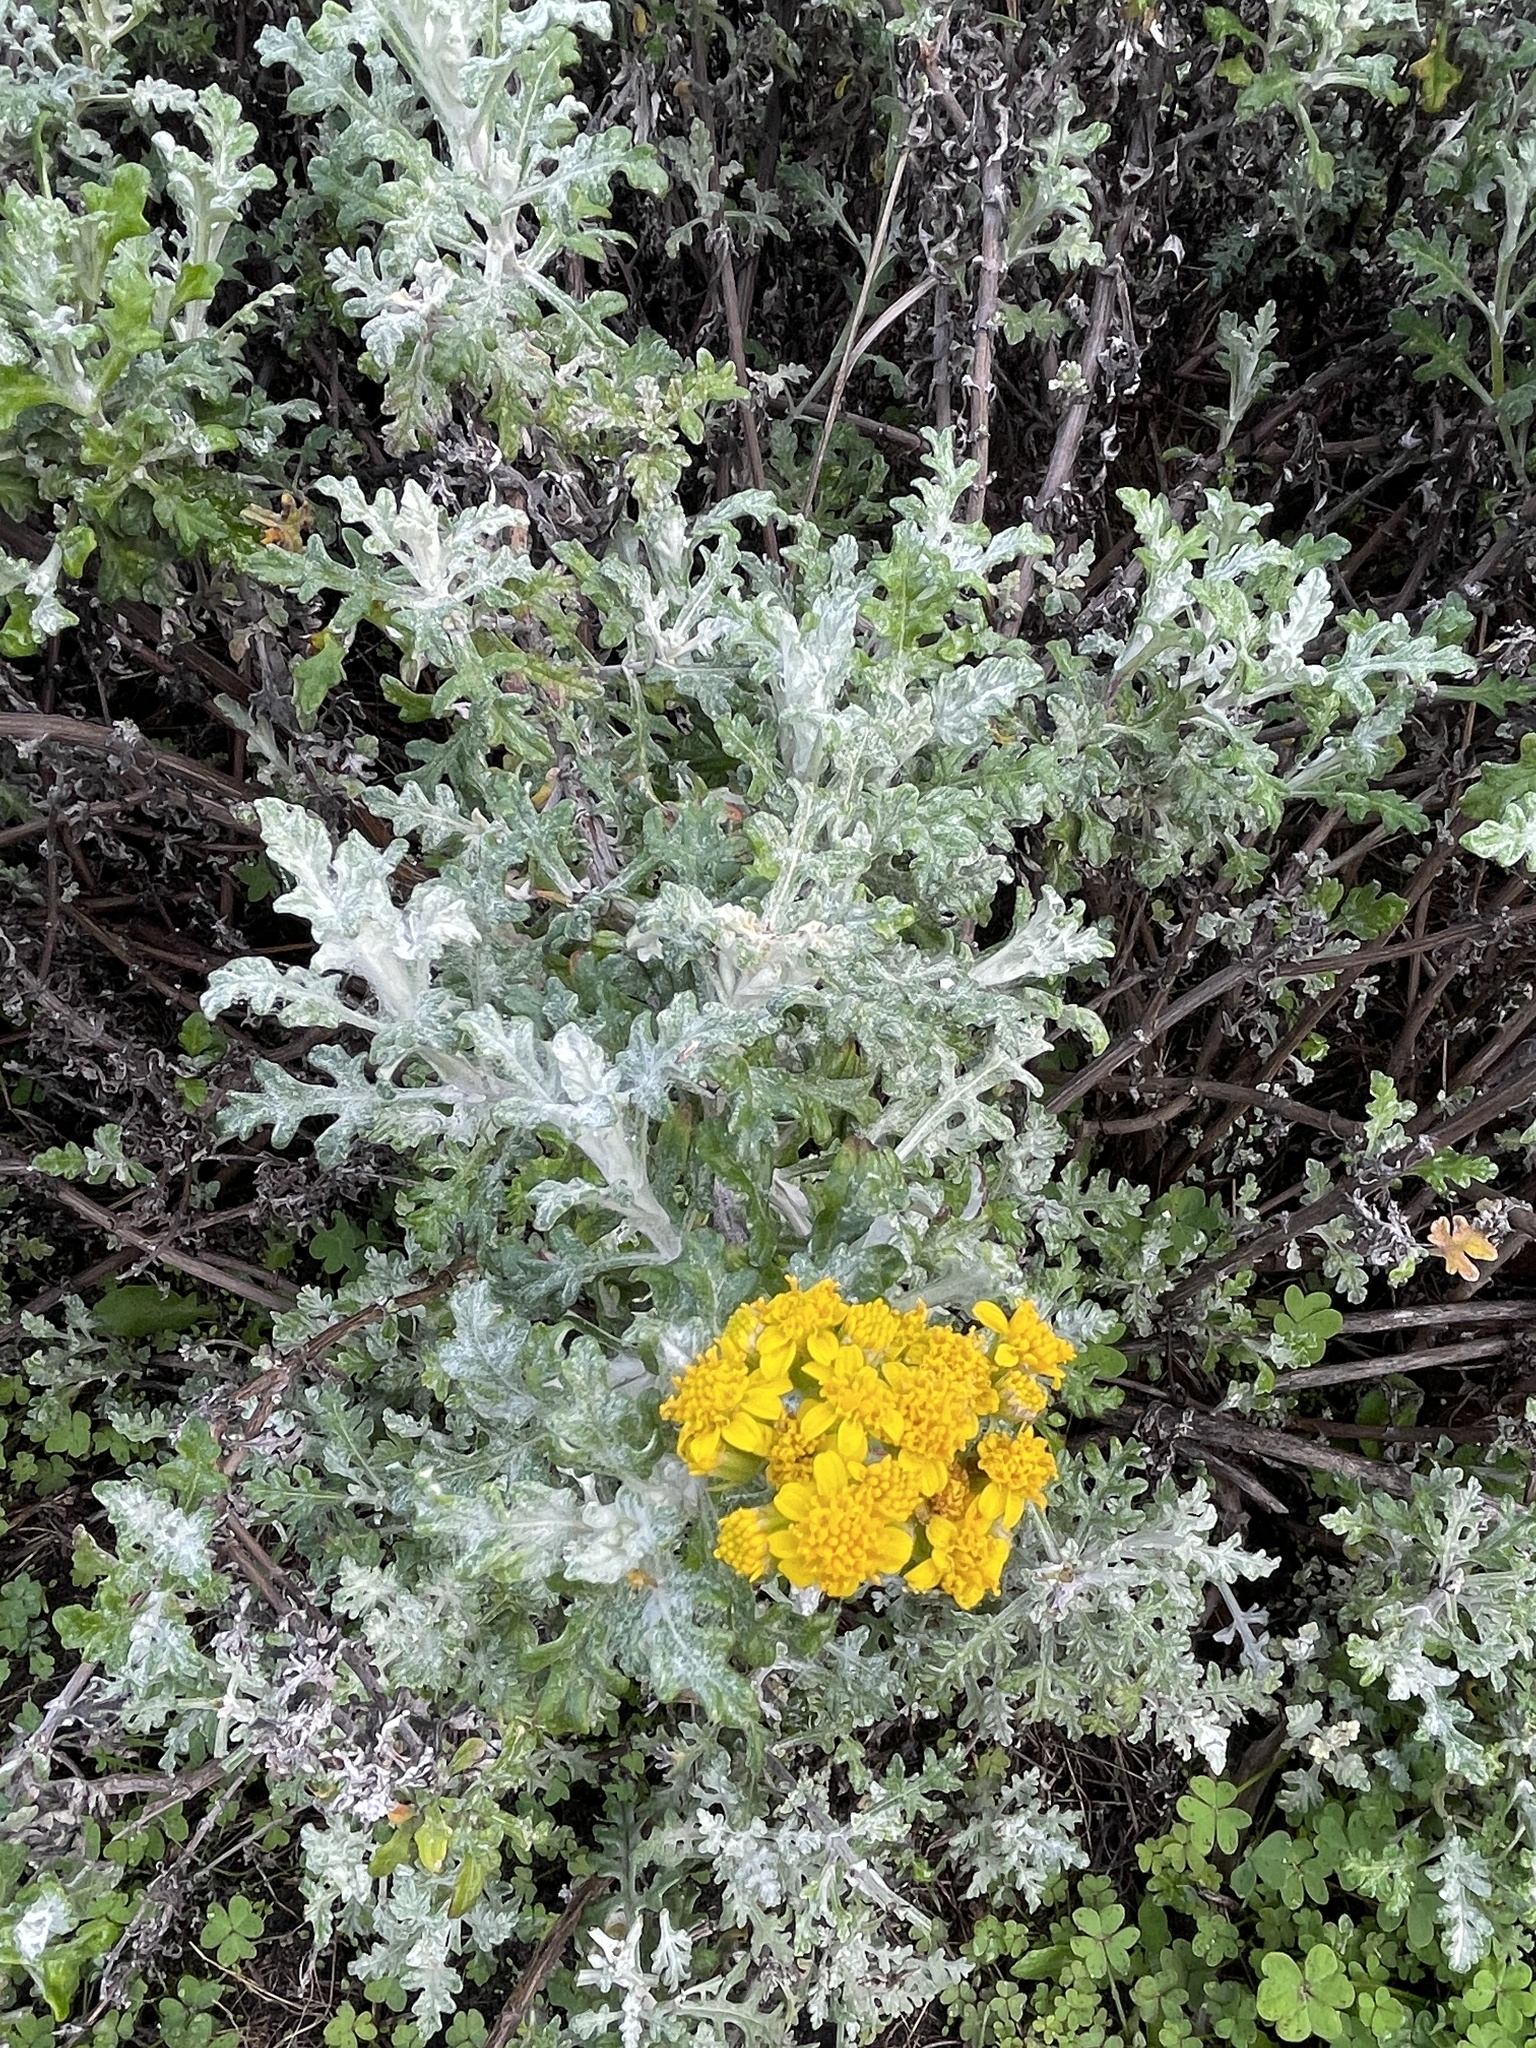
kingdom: Plantae
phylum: Tracheophyta
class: Magnoliopsida
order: Asterales
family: Asteraceae
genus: Eriophyllum
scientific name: Eriophyllum staechadifolium
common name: Lizardtail
